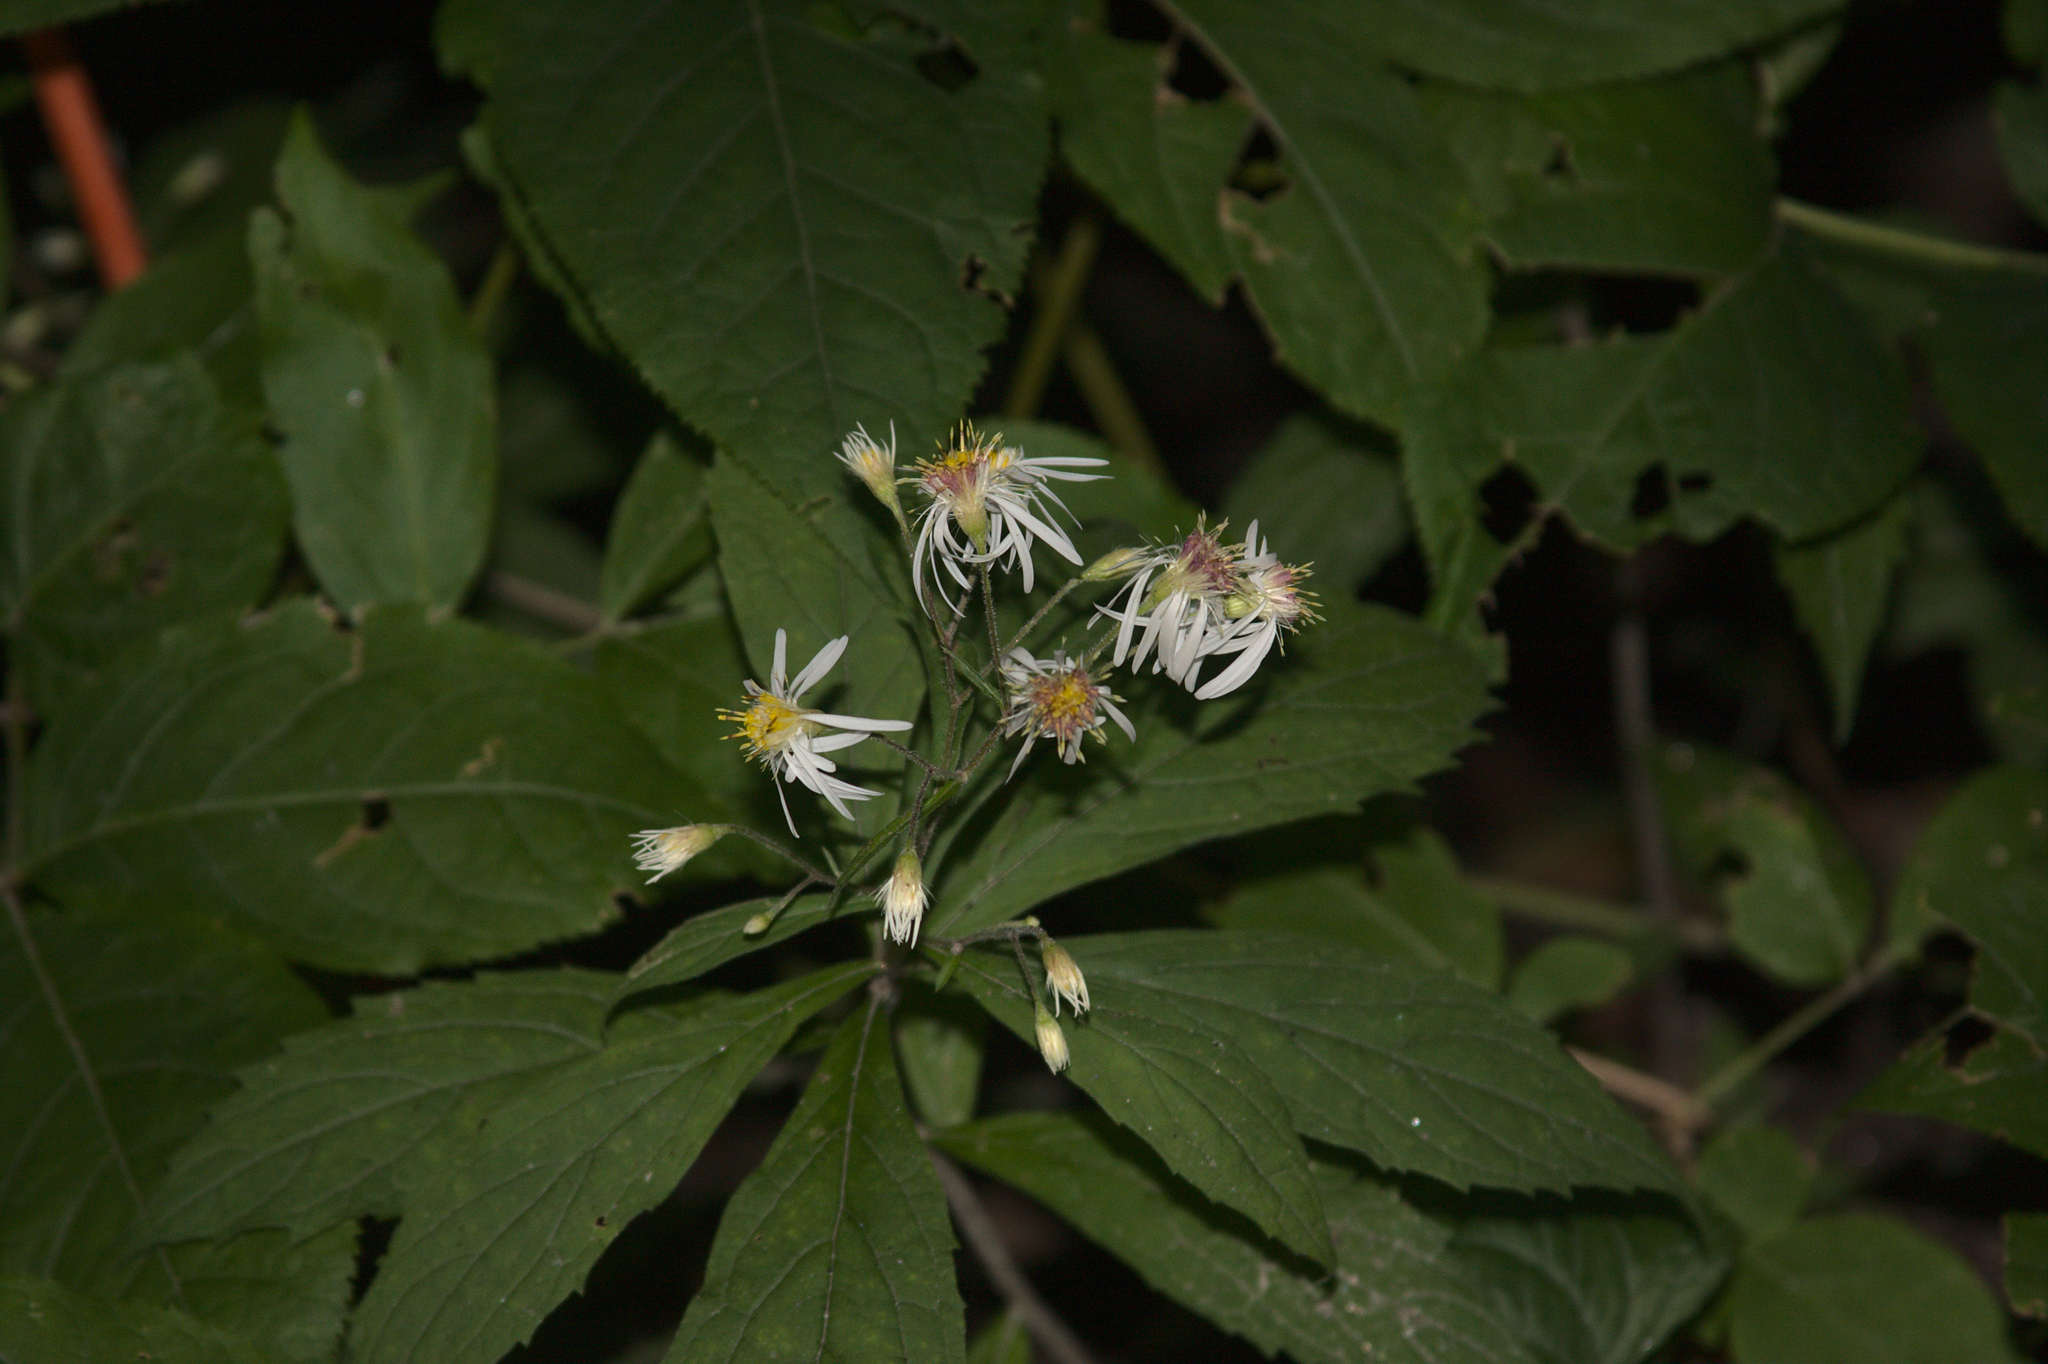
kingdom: Plantae
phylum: Tracheophyta
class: Magnoliopsida
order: Asterales
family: Asteraceae
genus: Oclemena
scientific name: Oclemena acuminata
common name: Mountain aster
